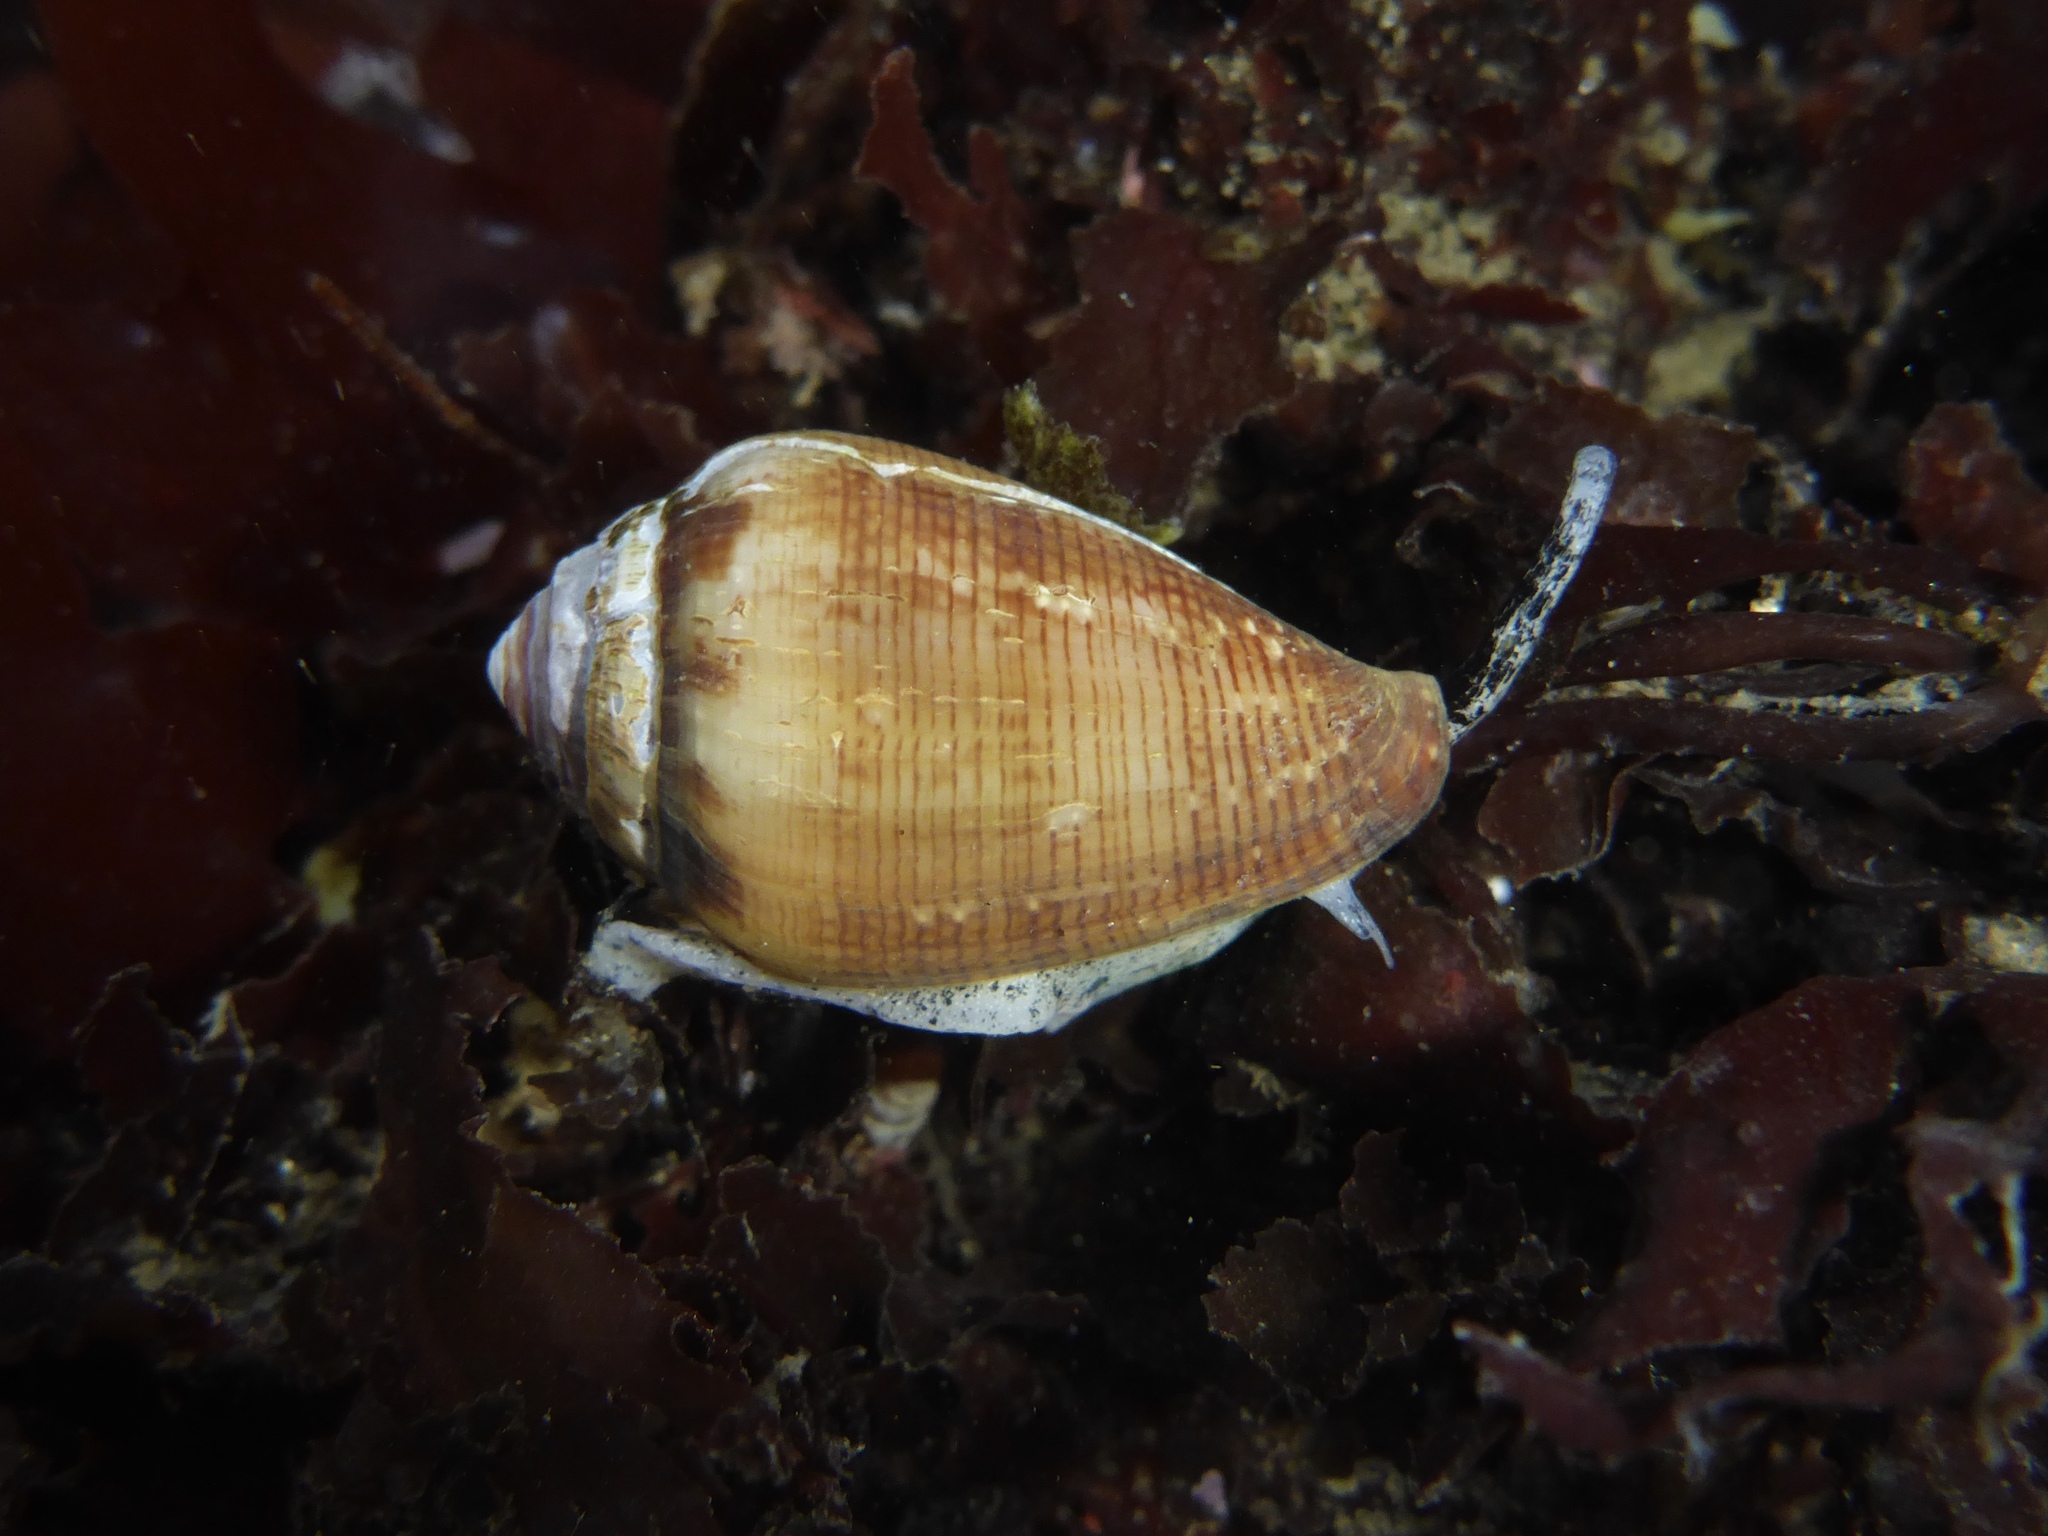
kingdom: Animalia
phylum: Mollusca
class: Gastropoda
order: Neogastropoda
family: Conidae
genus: Californiconus
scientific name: Californiconus californicus
